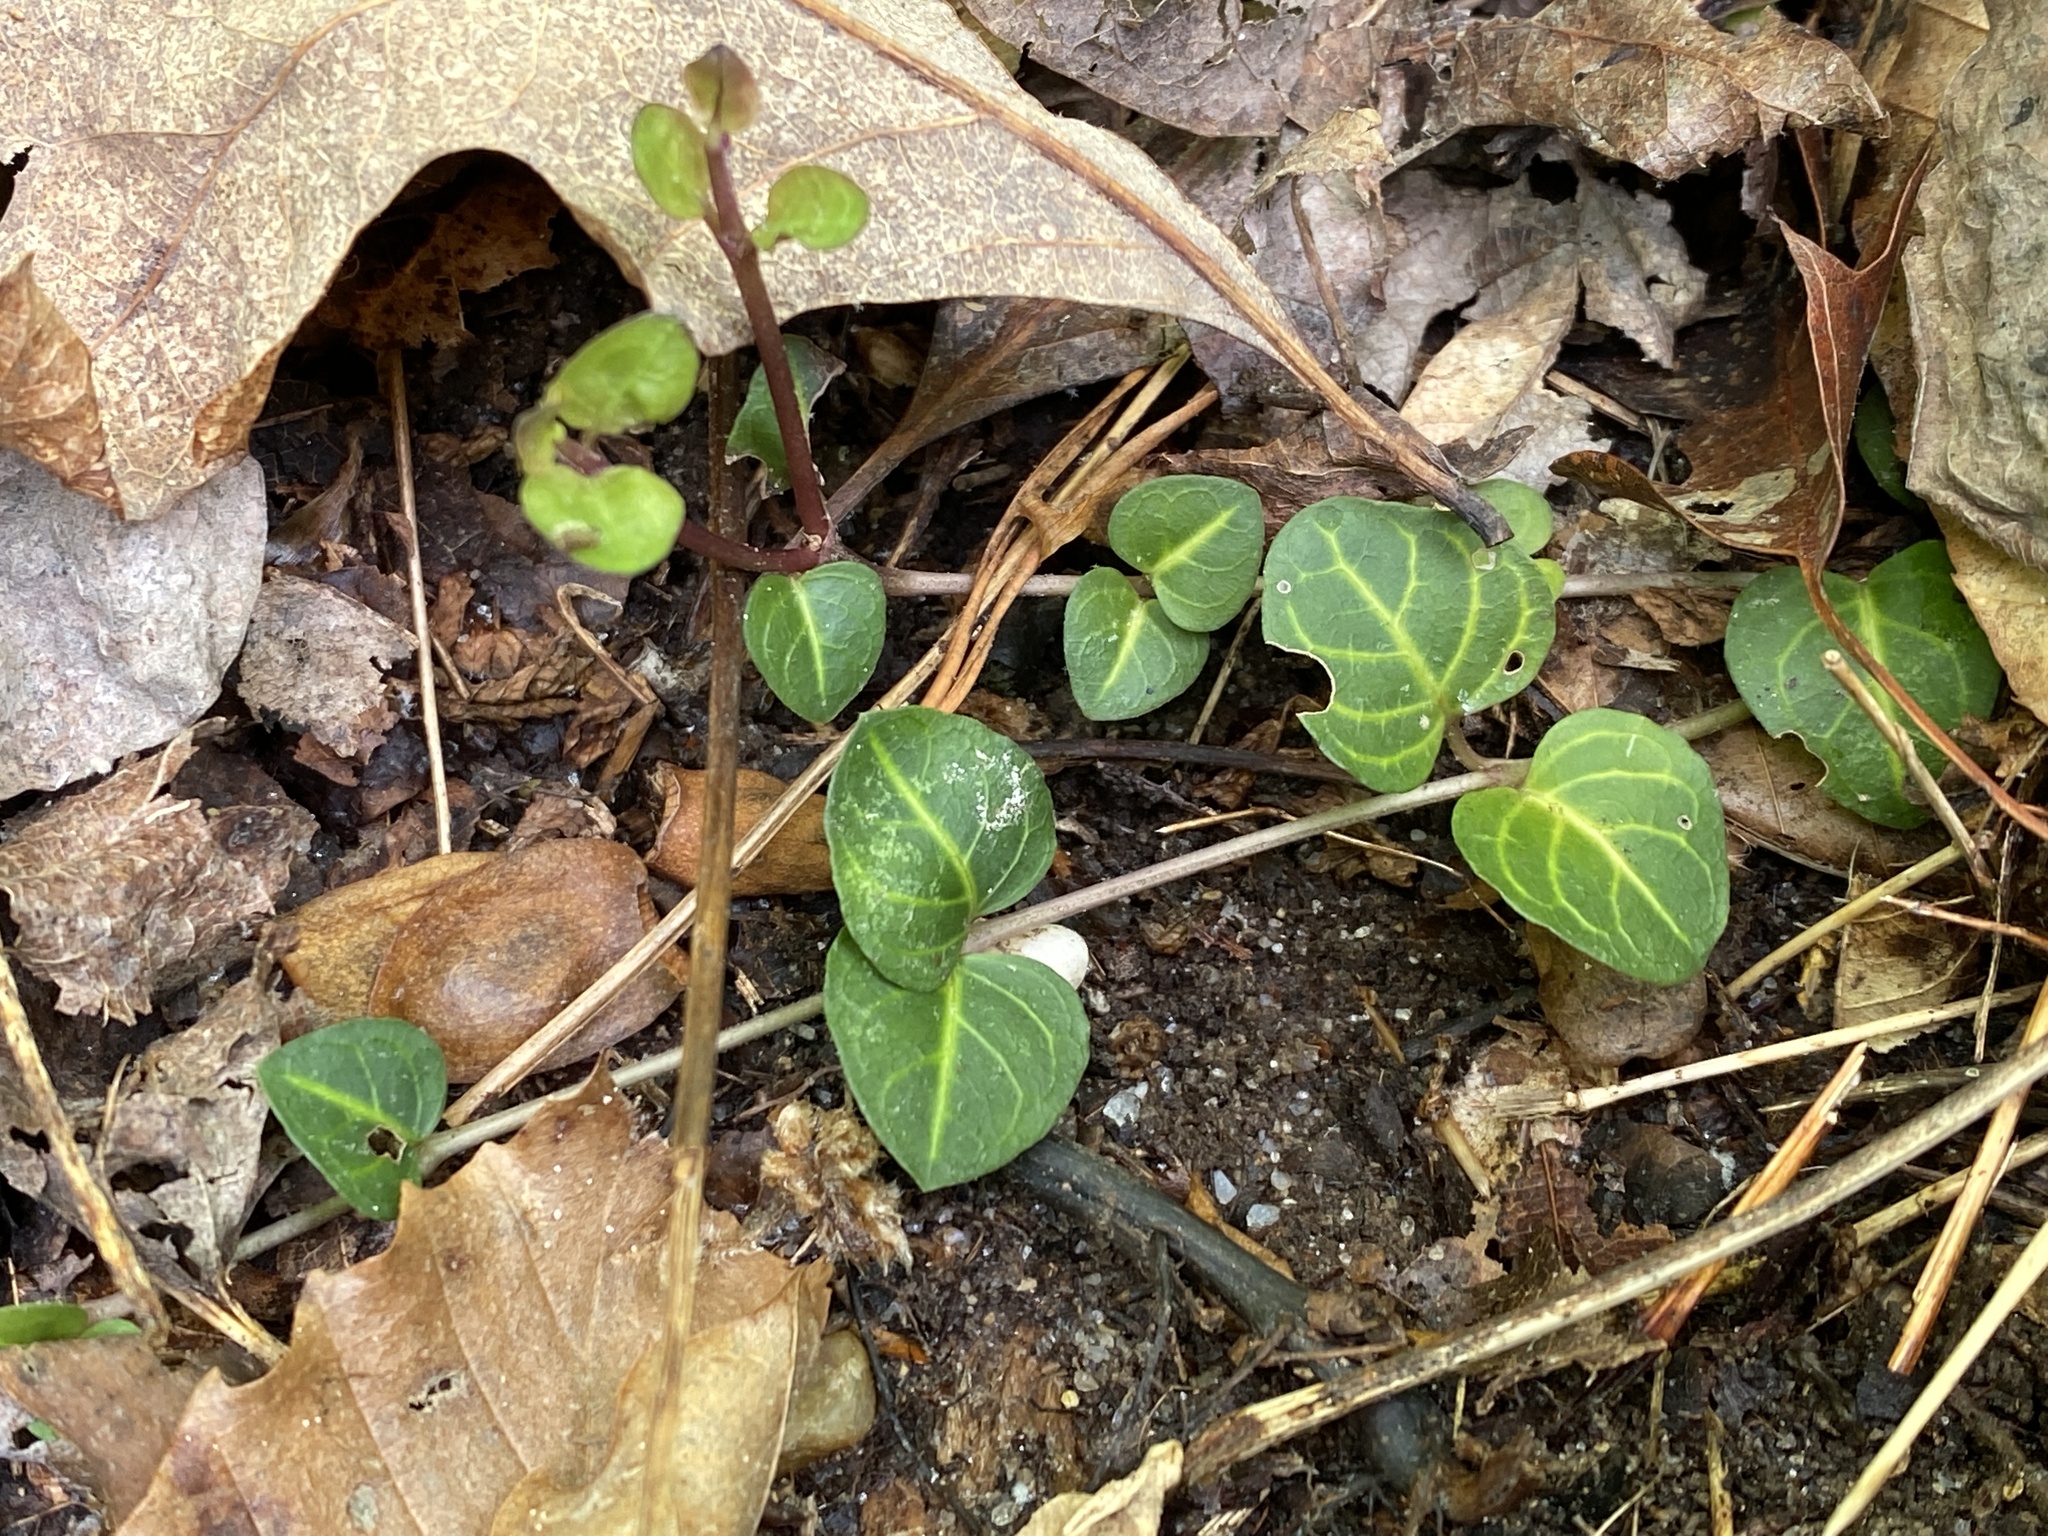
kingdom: Plantae
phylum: Tracheophyta
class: Magnoliopsida
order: Gentianales
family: Rubiaceae
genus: Mitchella
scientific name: Mitchella repens
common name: Partridge-berry
